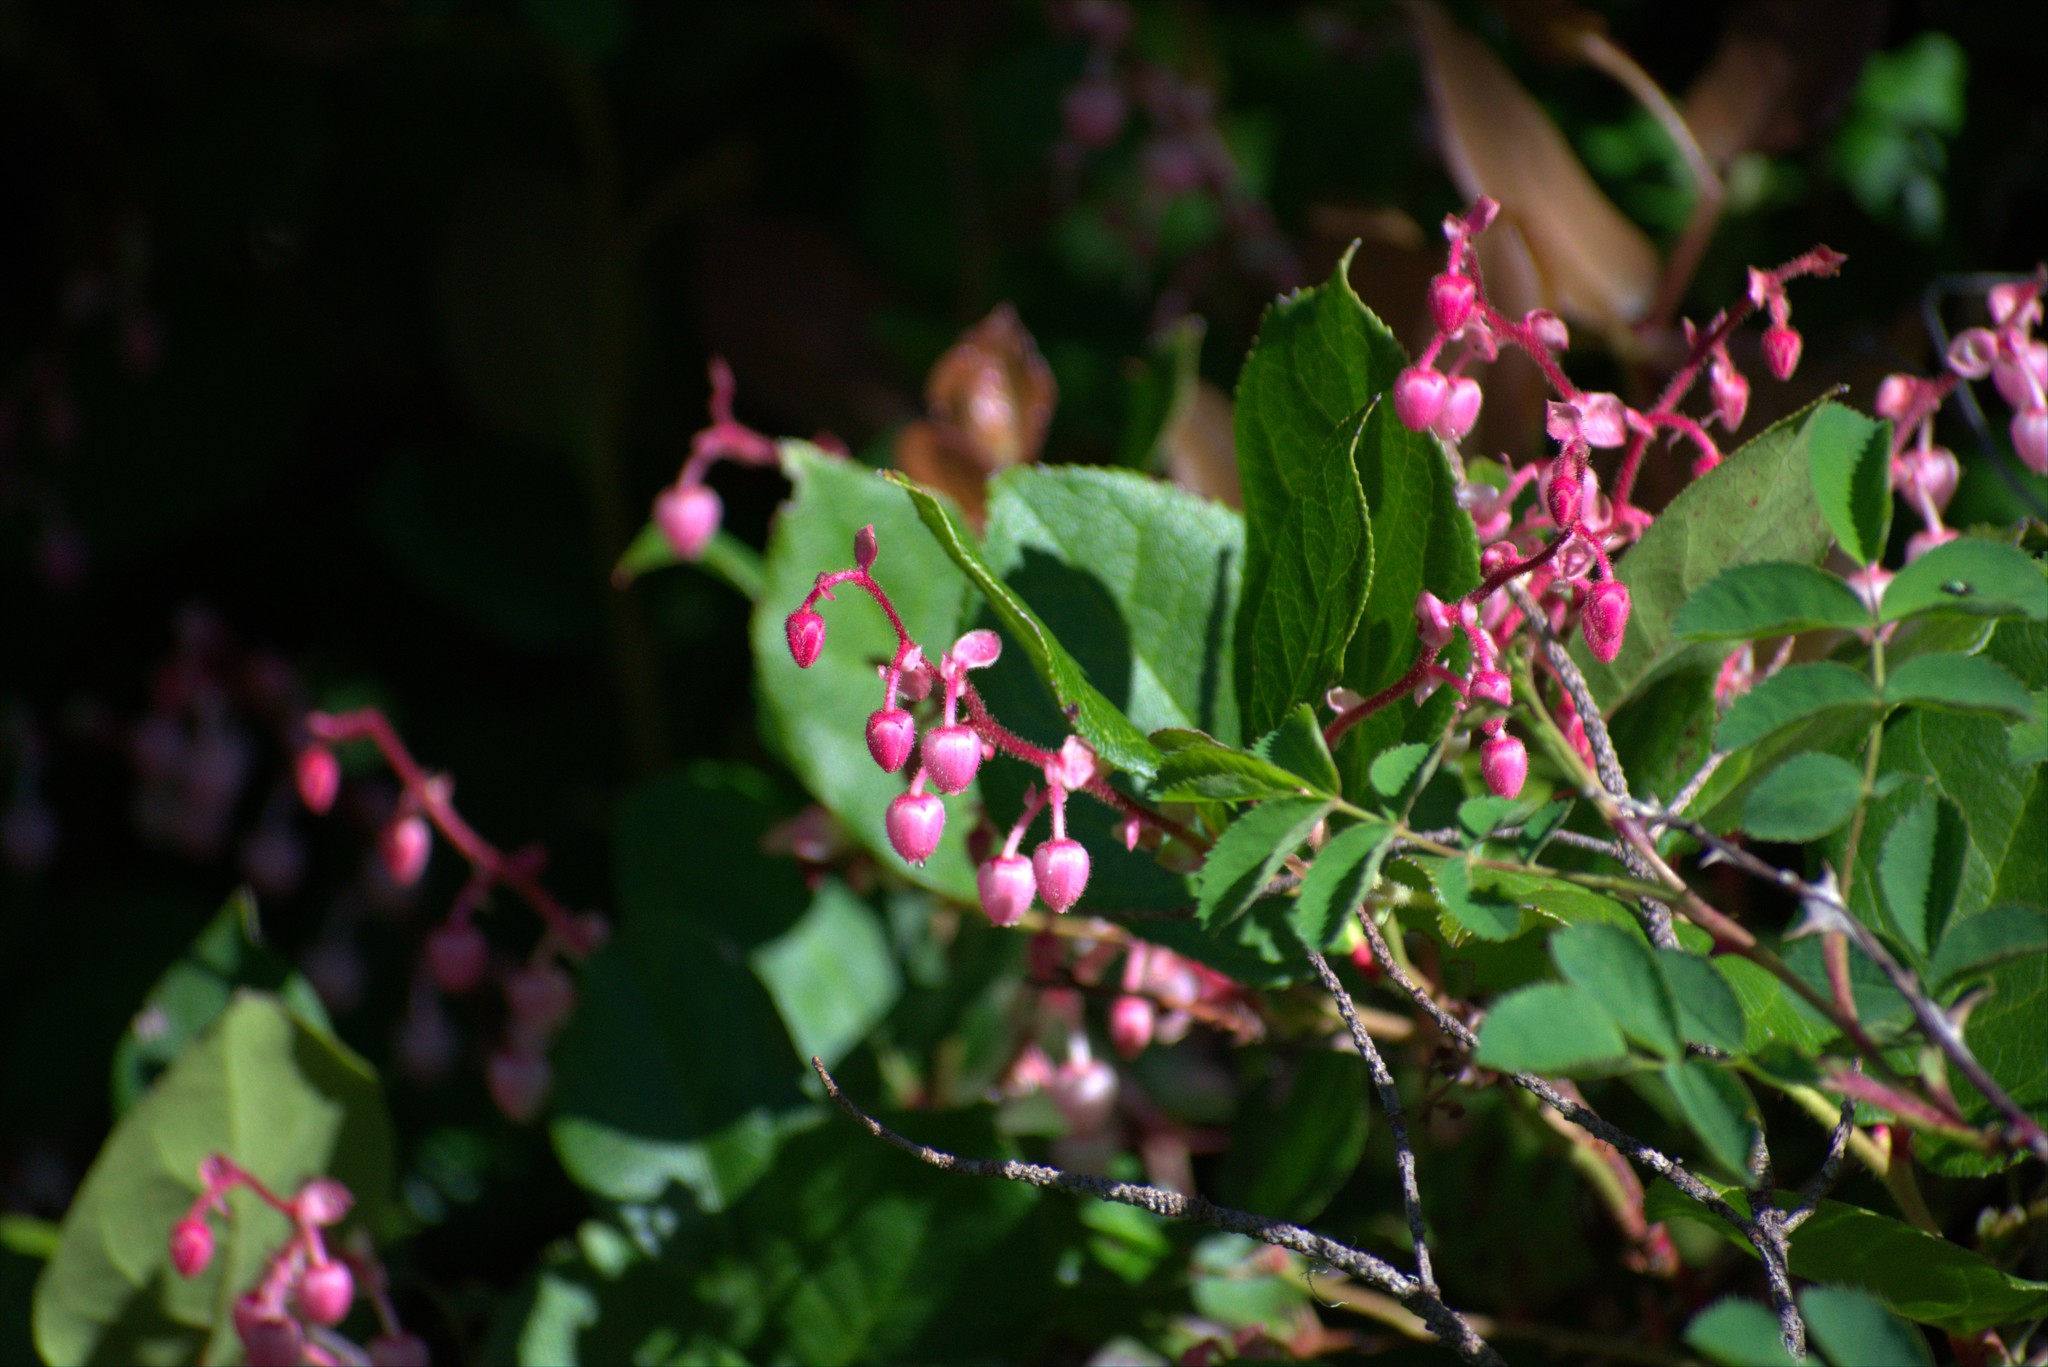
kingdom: Plantae
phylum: Tracheophyta
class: Magnoliopsida
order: Ericales
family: Ericaceae
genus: Gaultheria
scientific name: Gaultheria shallon
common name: Shallon
